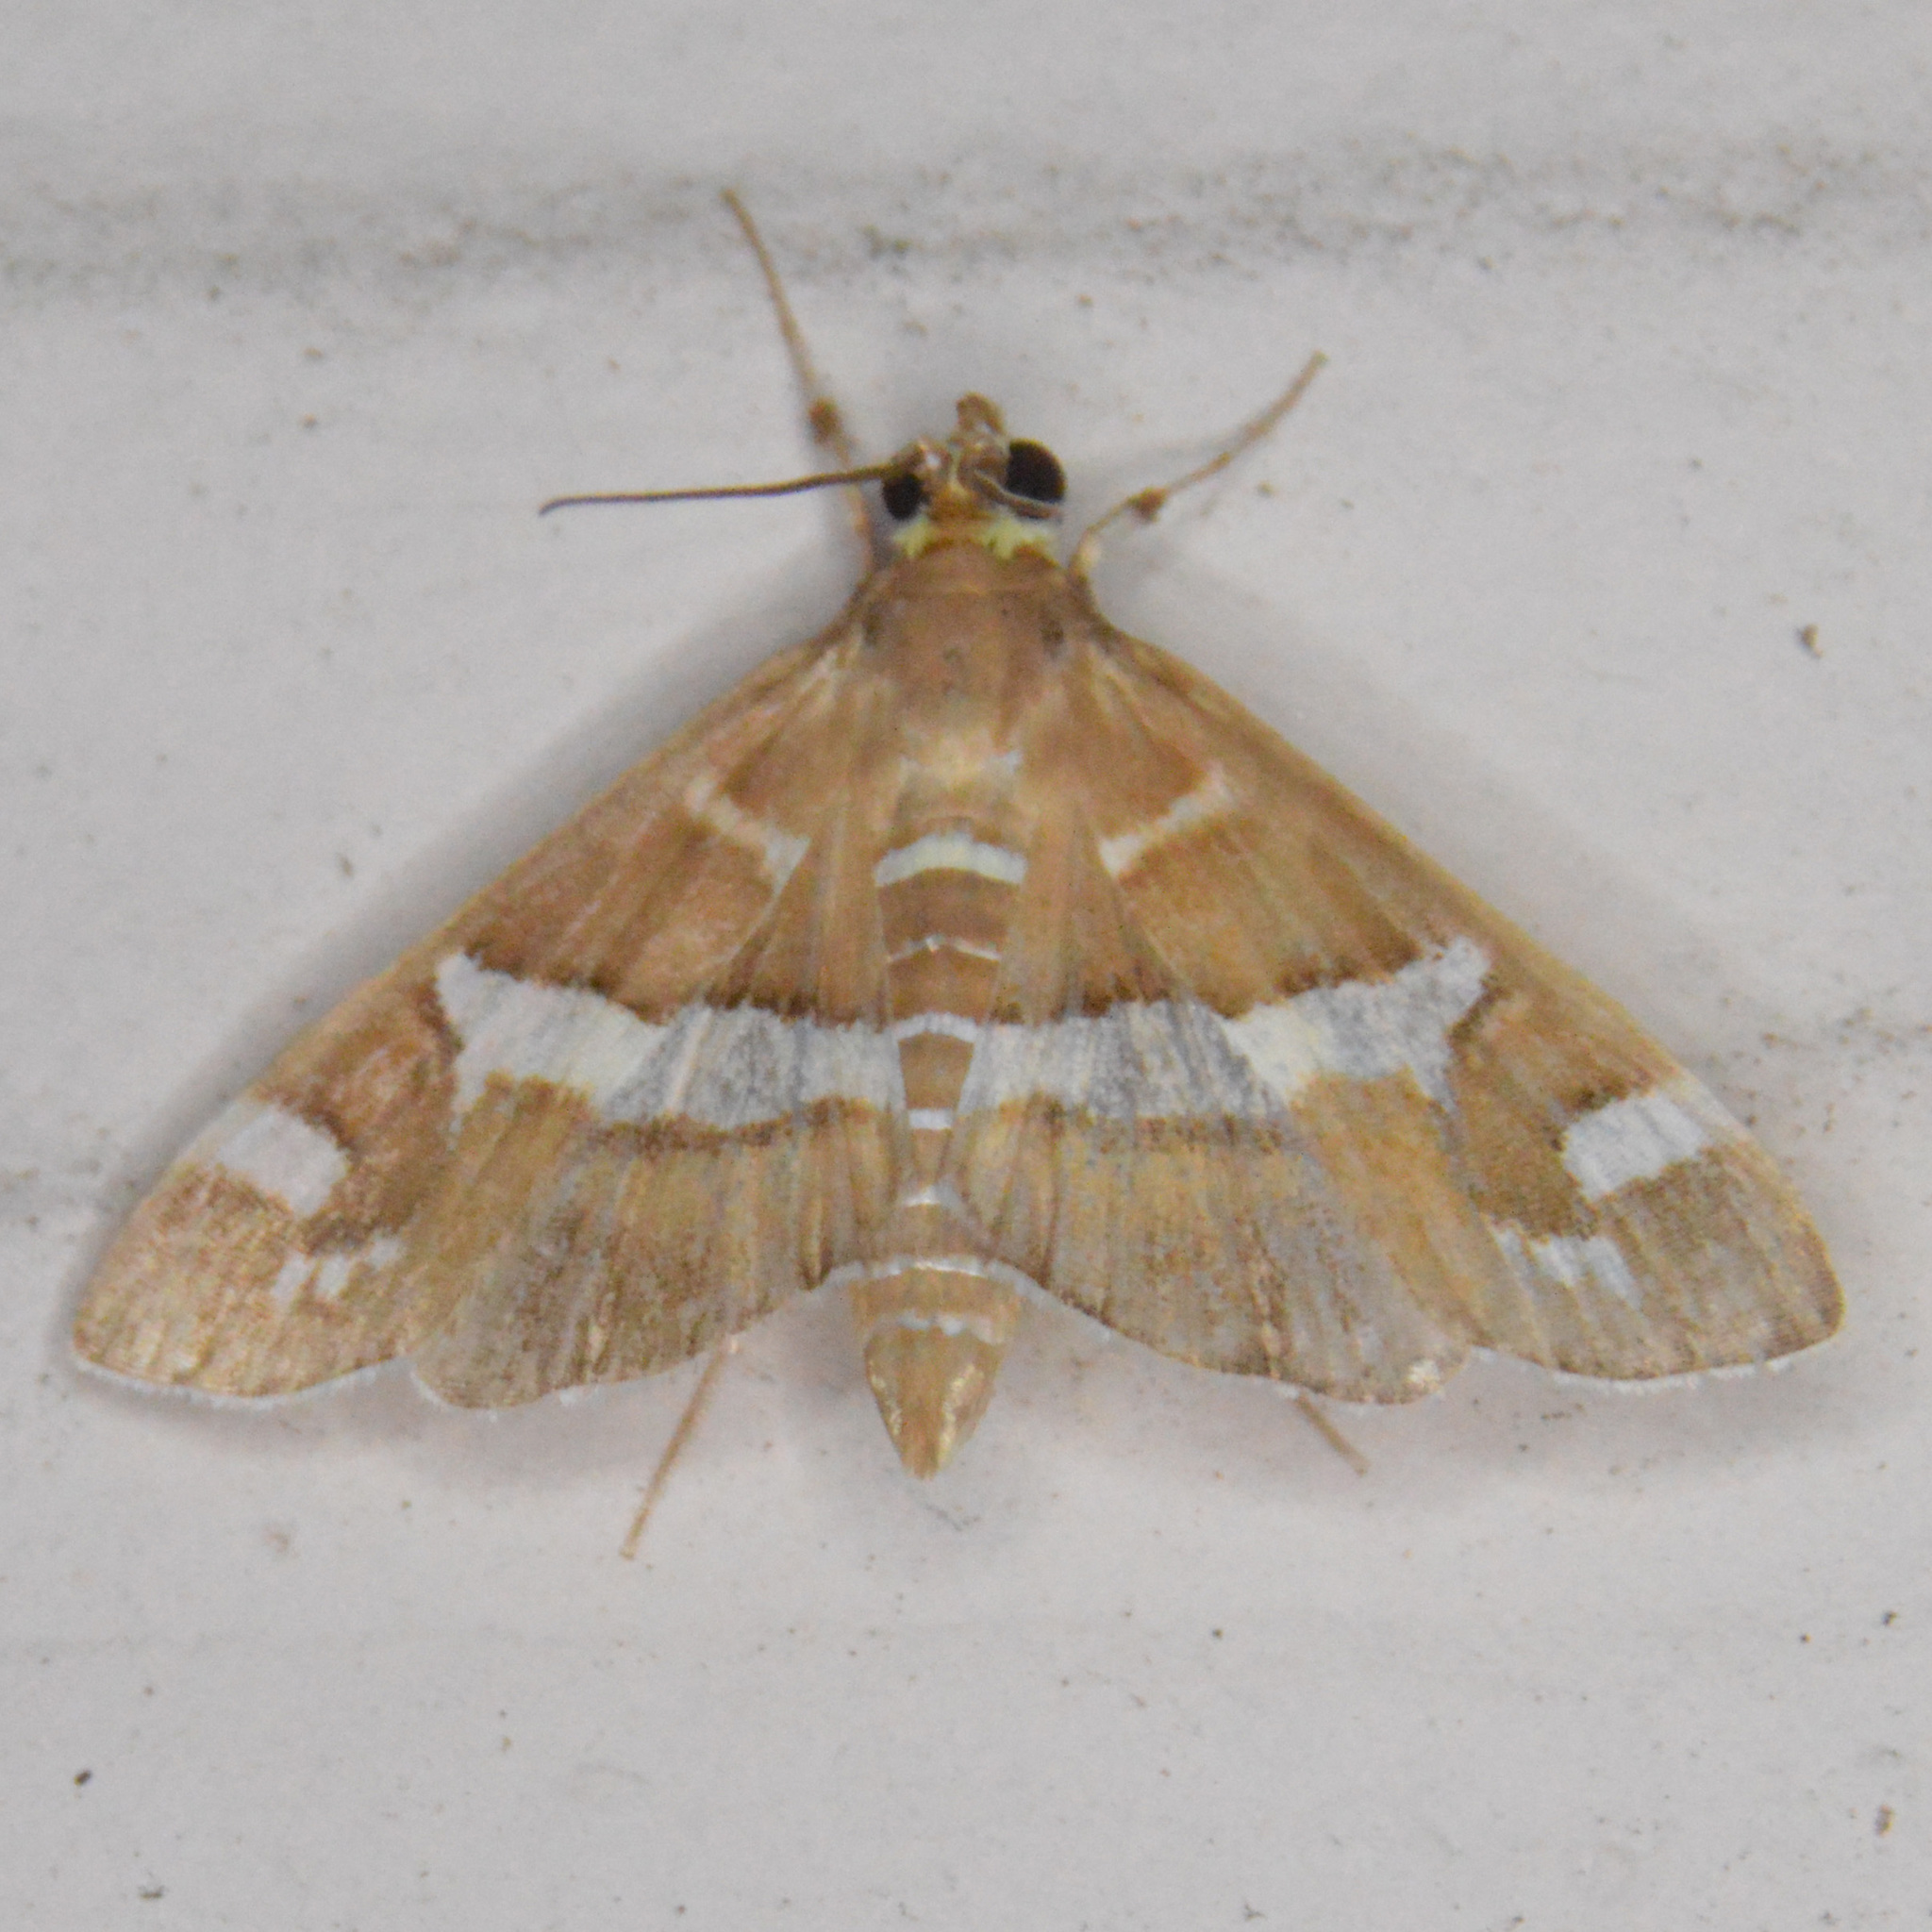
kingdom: Animalia
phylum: Arthropoda
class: Insecta
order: Lepidoptera
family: Crambidae
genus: Spoladea
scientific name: Spoladea recurvalis
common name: Beet webworm moth
